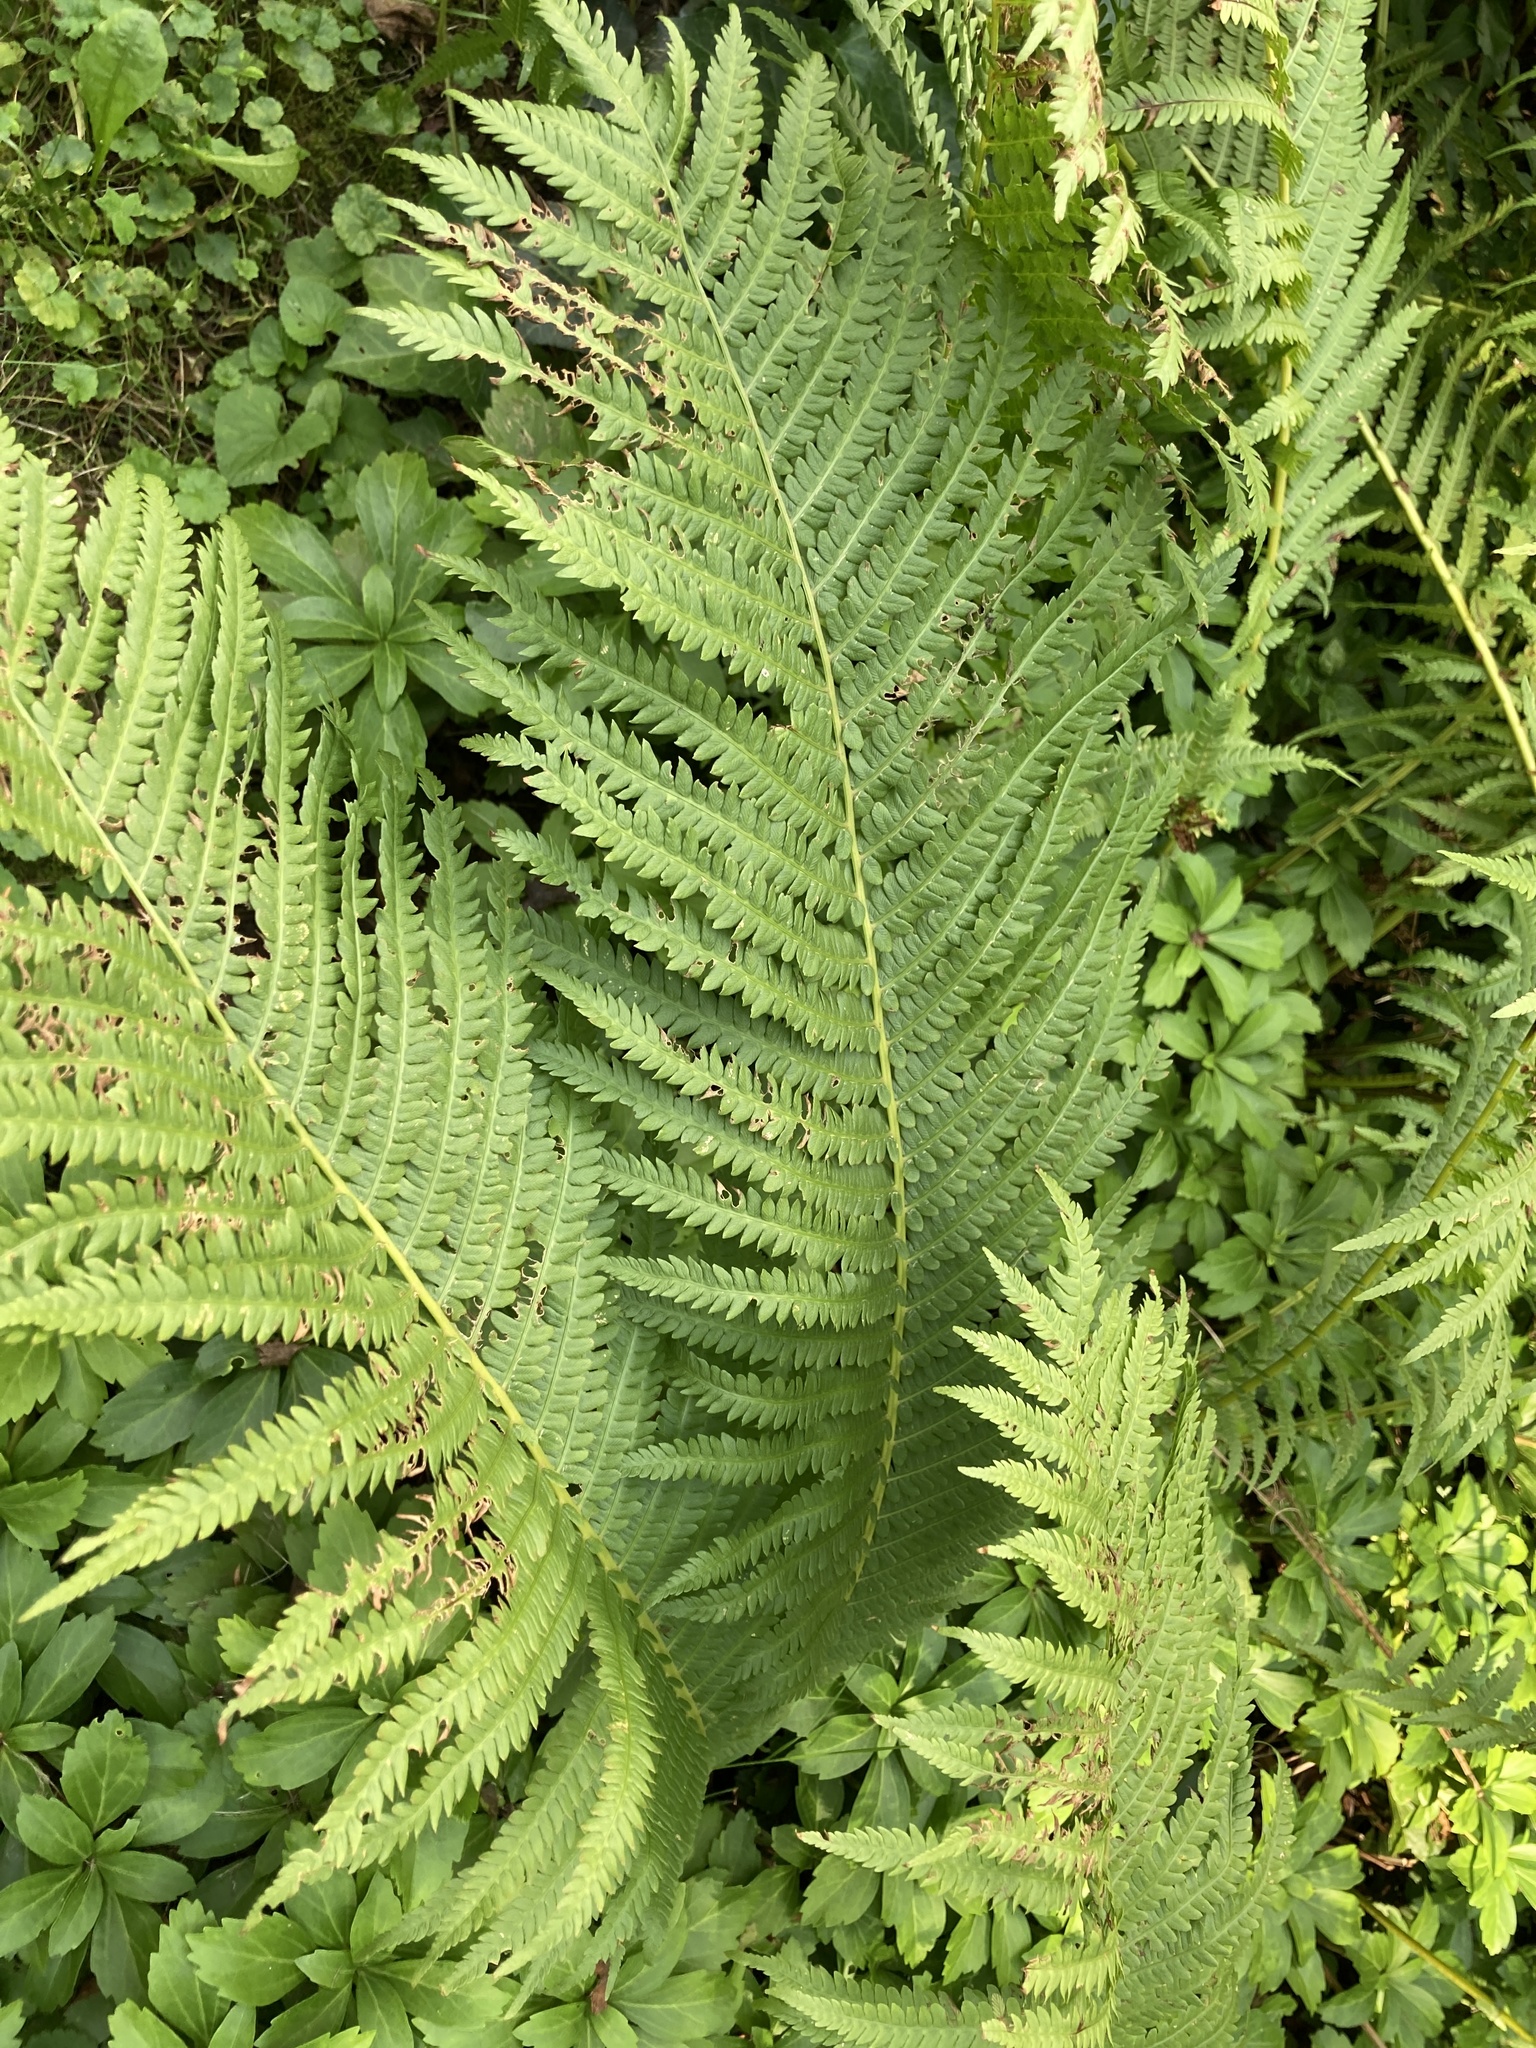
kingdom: Plantae
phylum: Tracheophyta
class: Polypodiopsida
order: Polypodiales
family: Onocleaceae
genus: Matteuccia
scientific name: Matteuccia struthiopteris
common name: Ostrich fern
